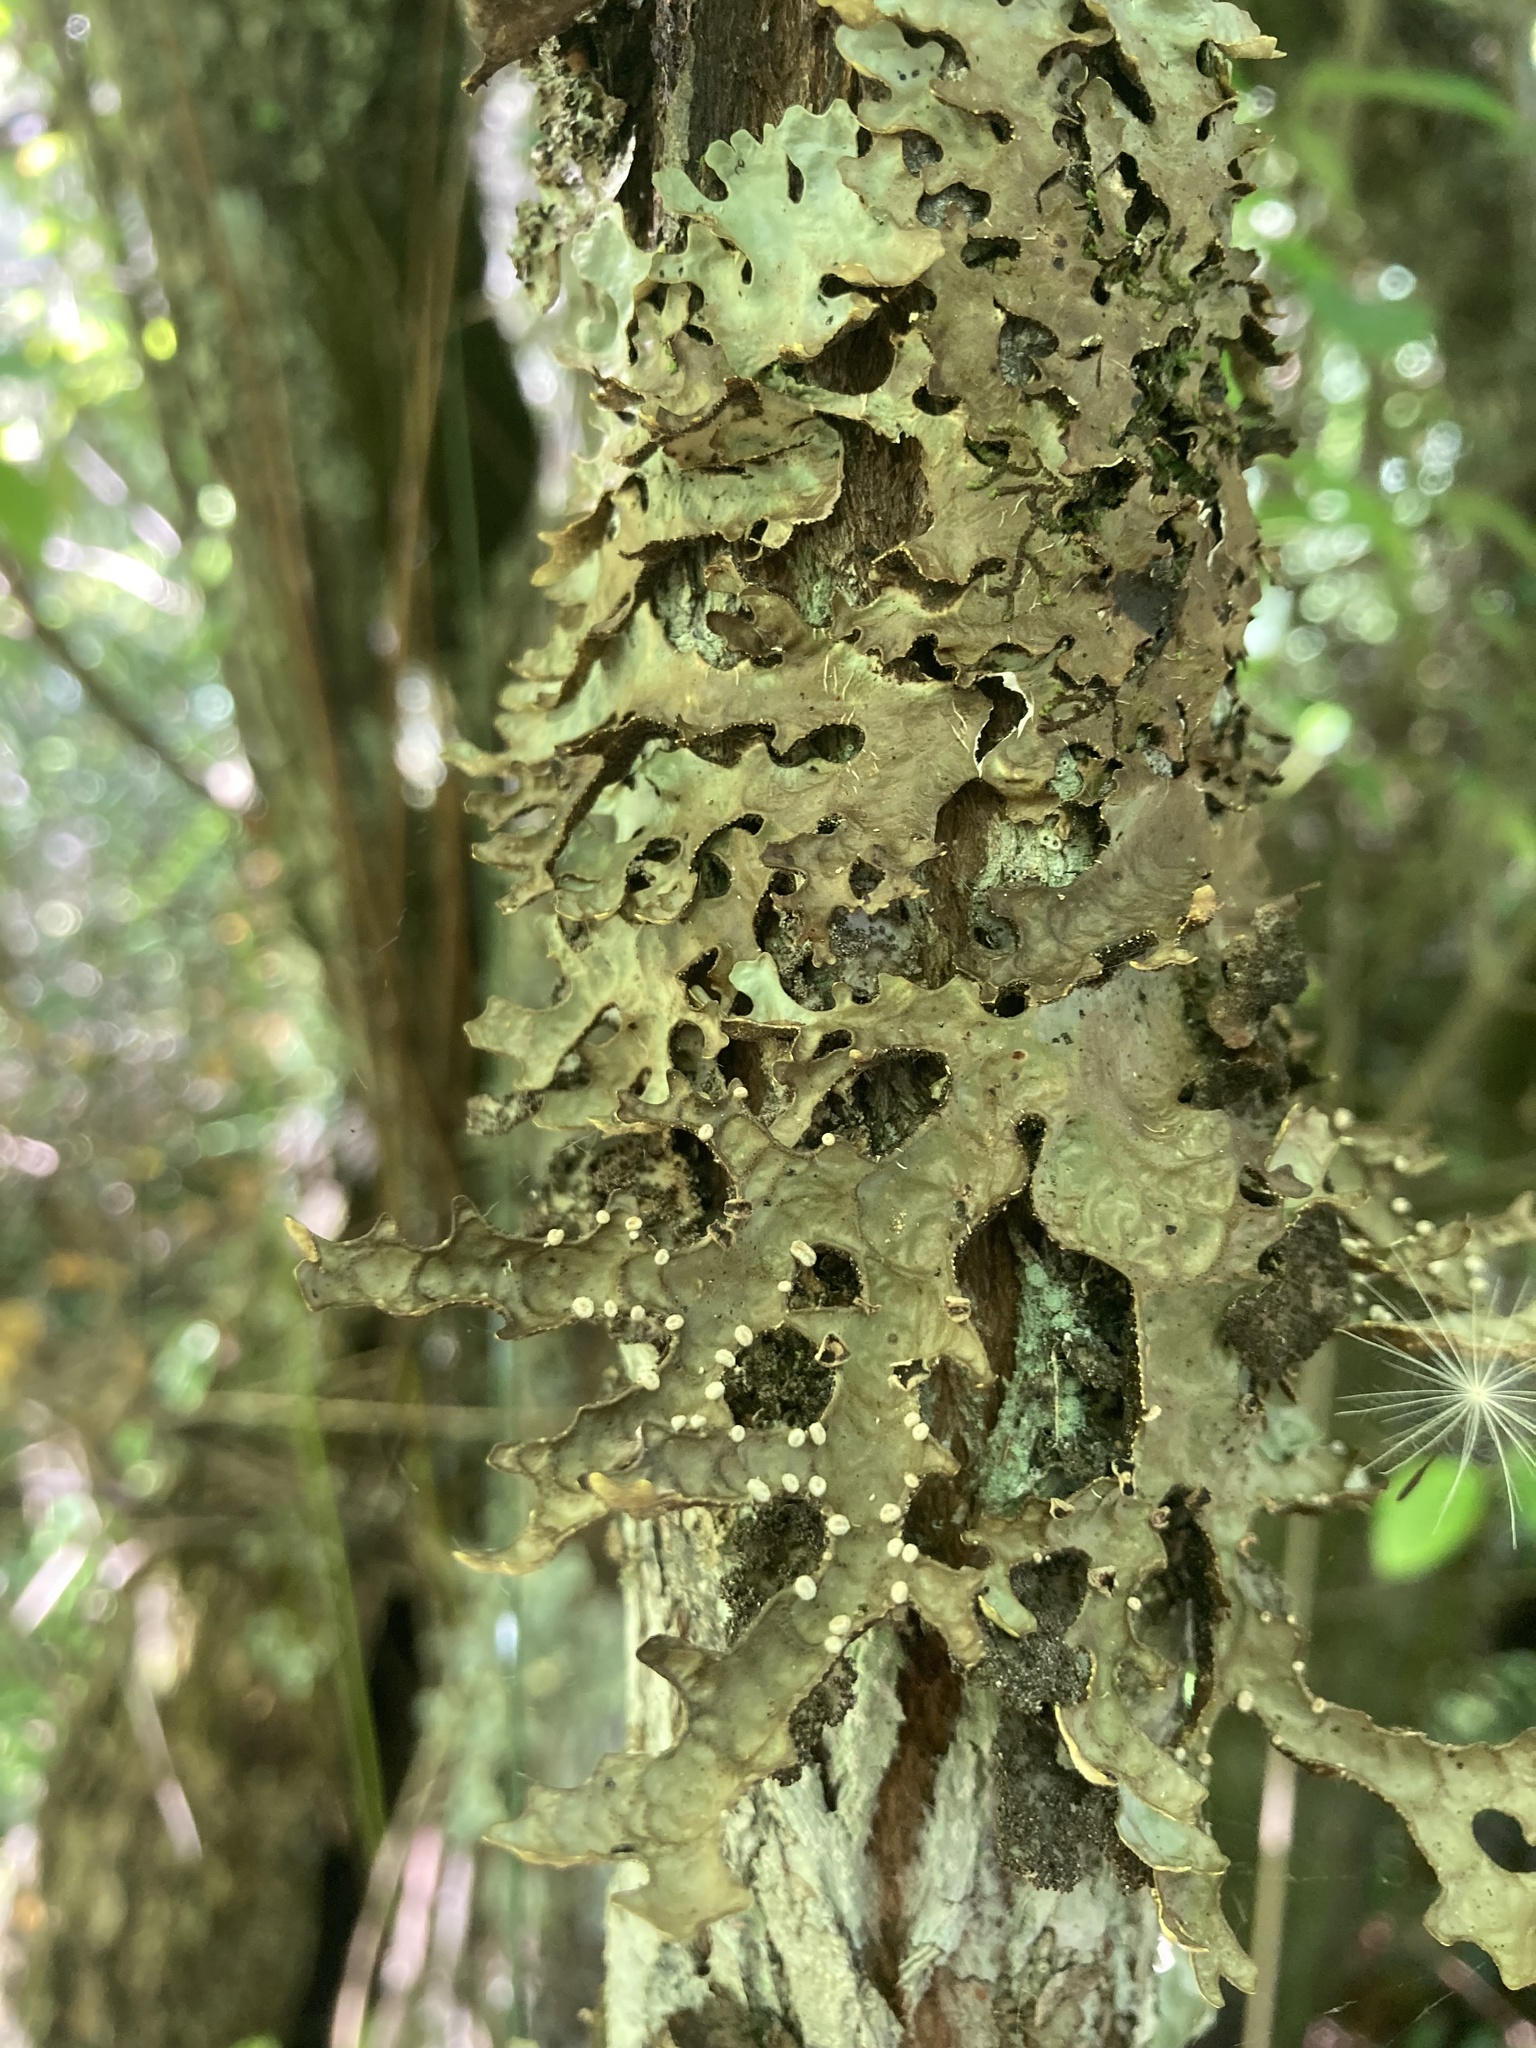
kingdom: Fungi
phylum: Ascomycota
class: Lecanoromycetes
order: Peltigerales
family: Lobariaceae
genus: Pseudocyphellaria
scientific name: Pseudocyphellaria carpoloma
